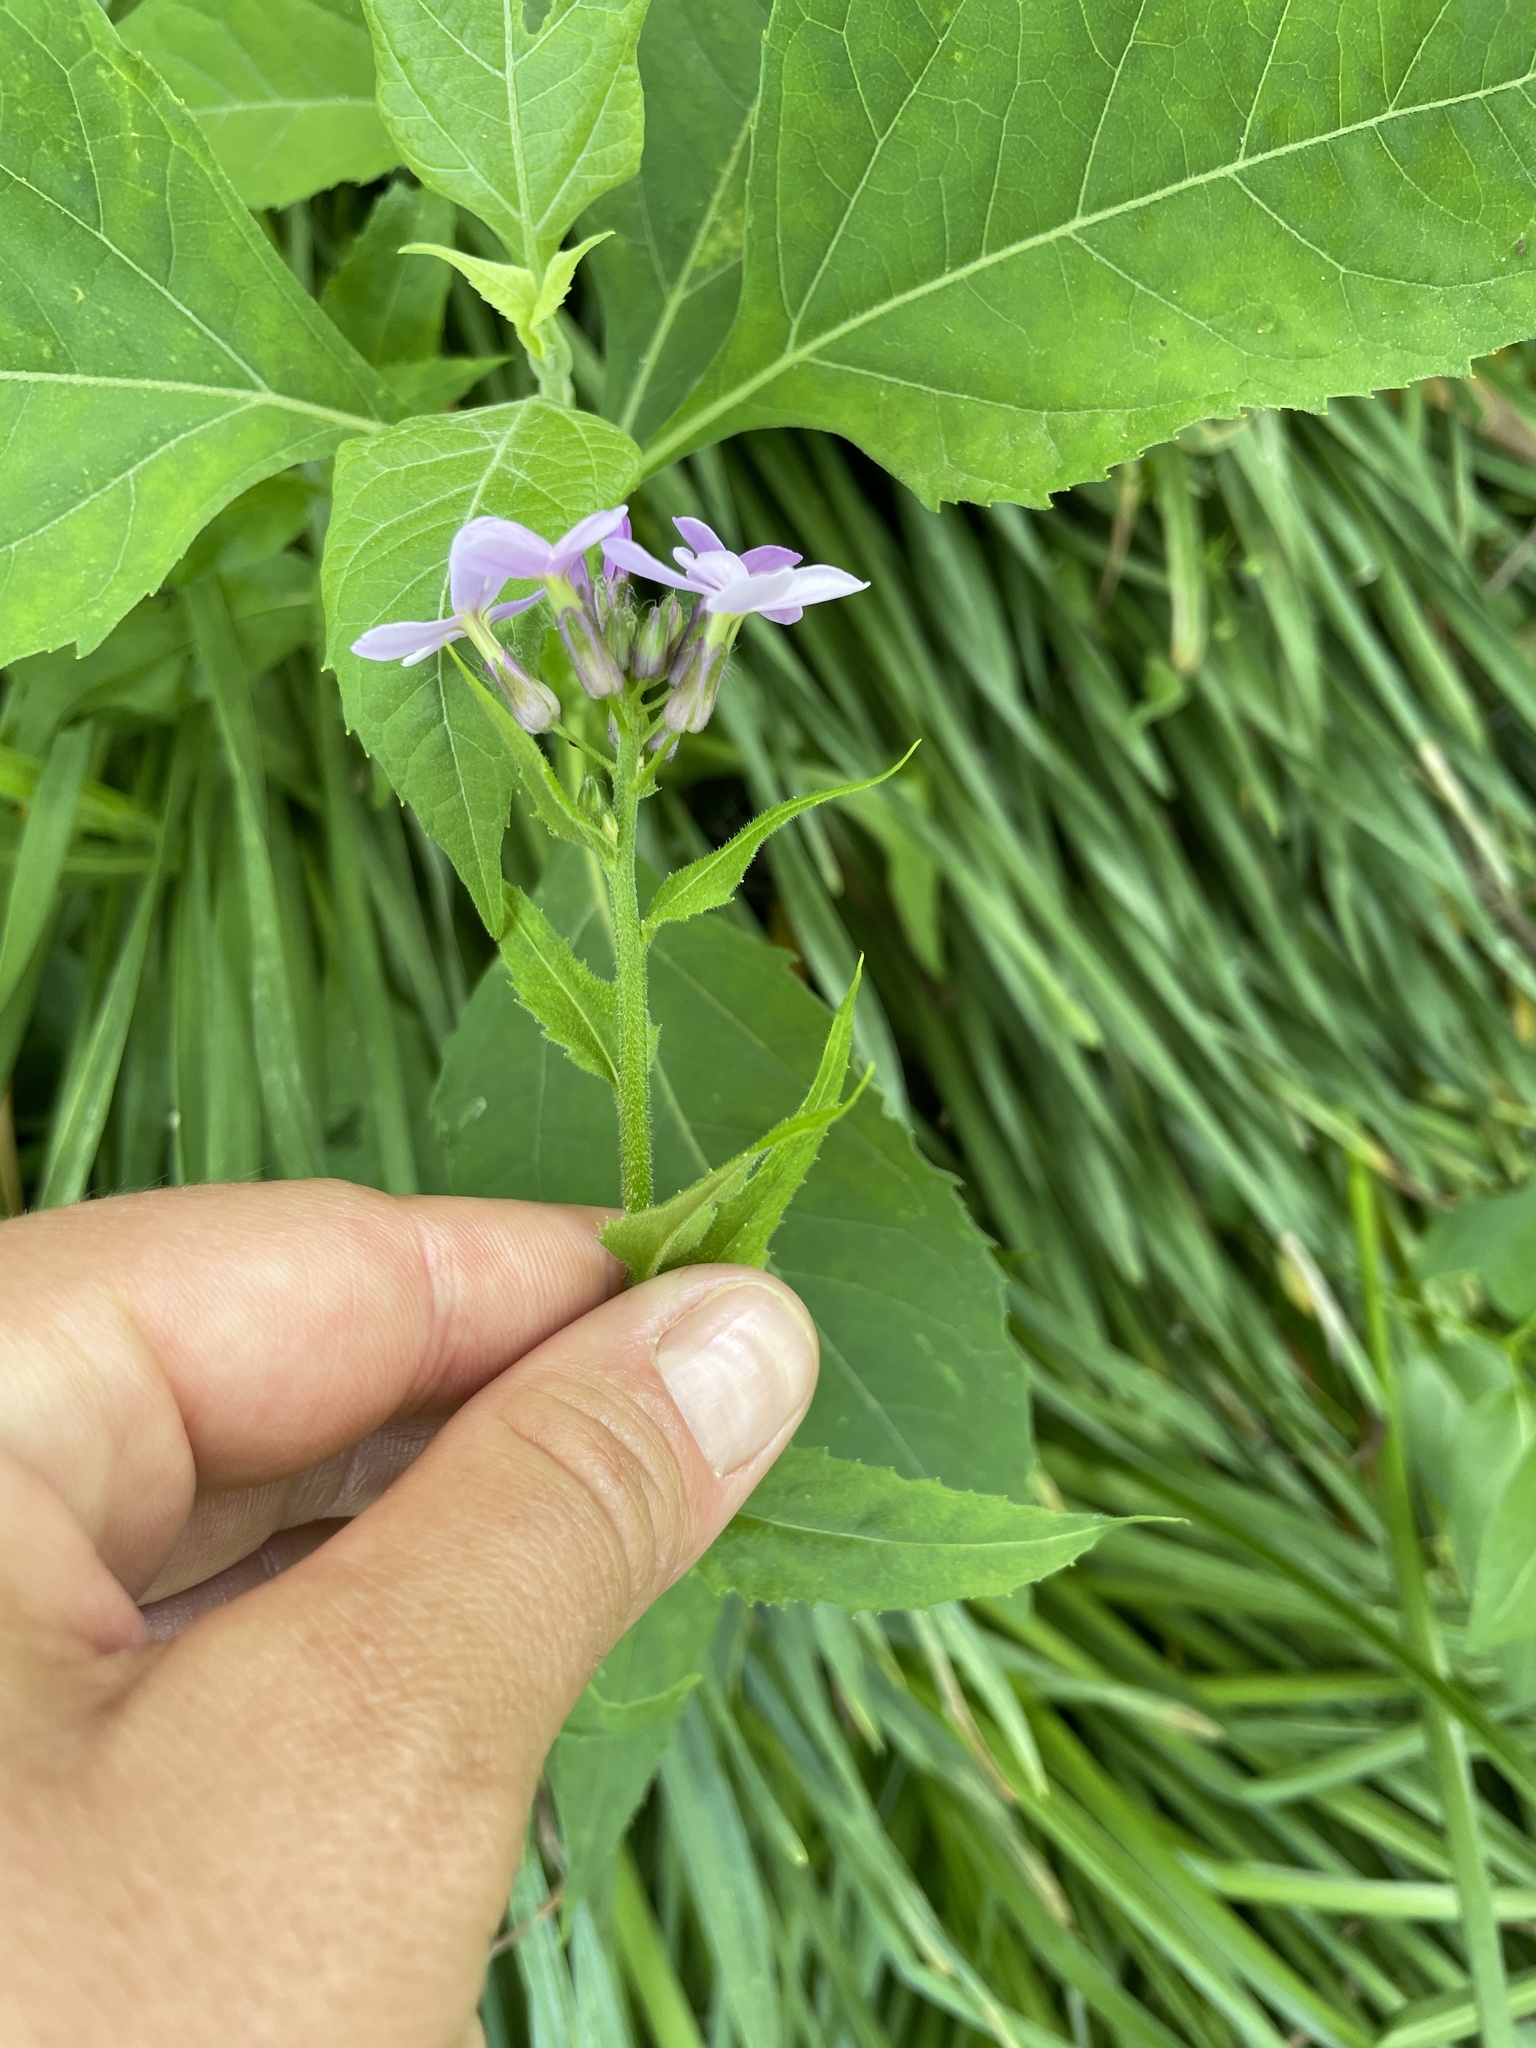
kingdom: Plantae
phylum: Tracheophyta
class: Magnoliopsida
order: Brassicales
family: Brassicaceae
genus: Hesperis
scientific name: Hesperis matronalis
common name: Dame's-violet
